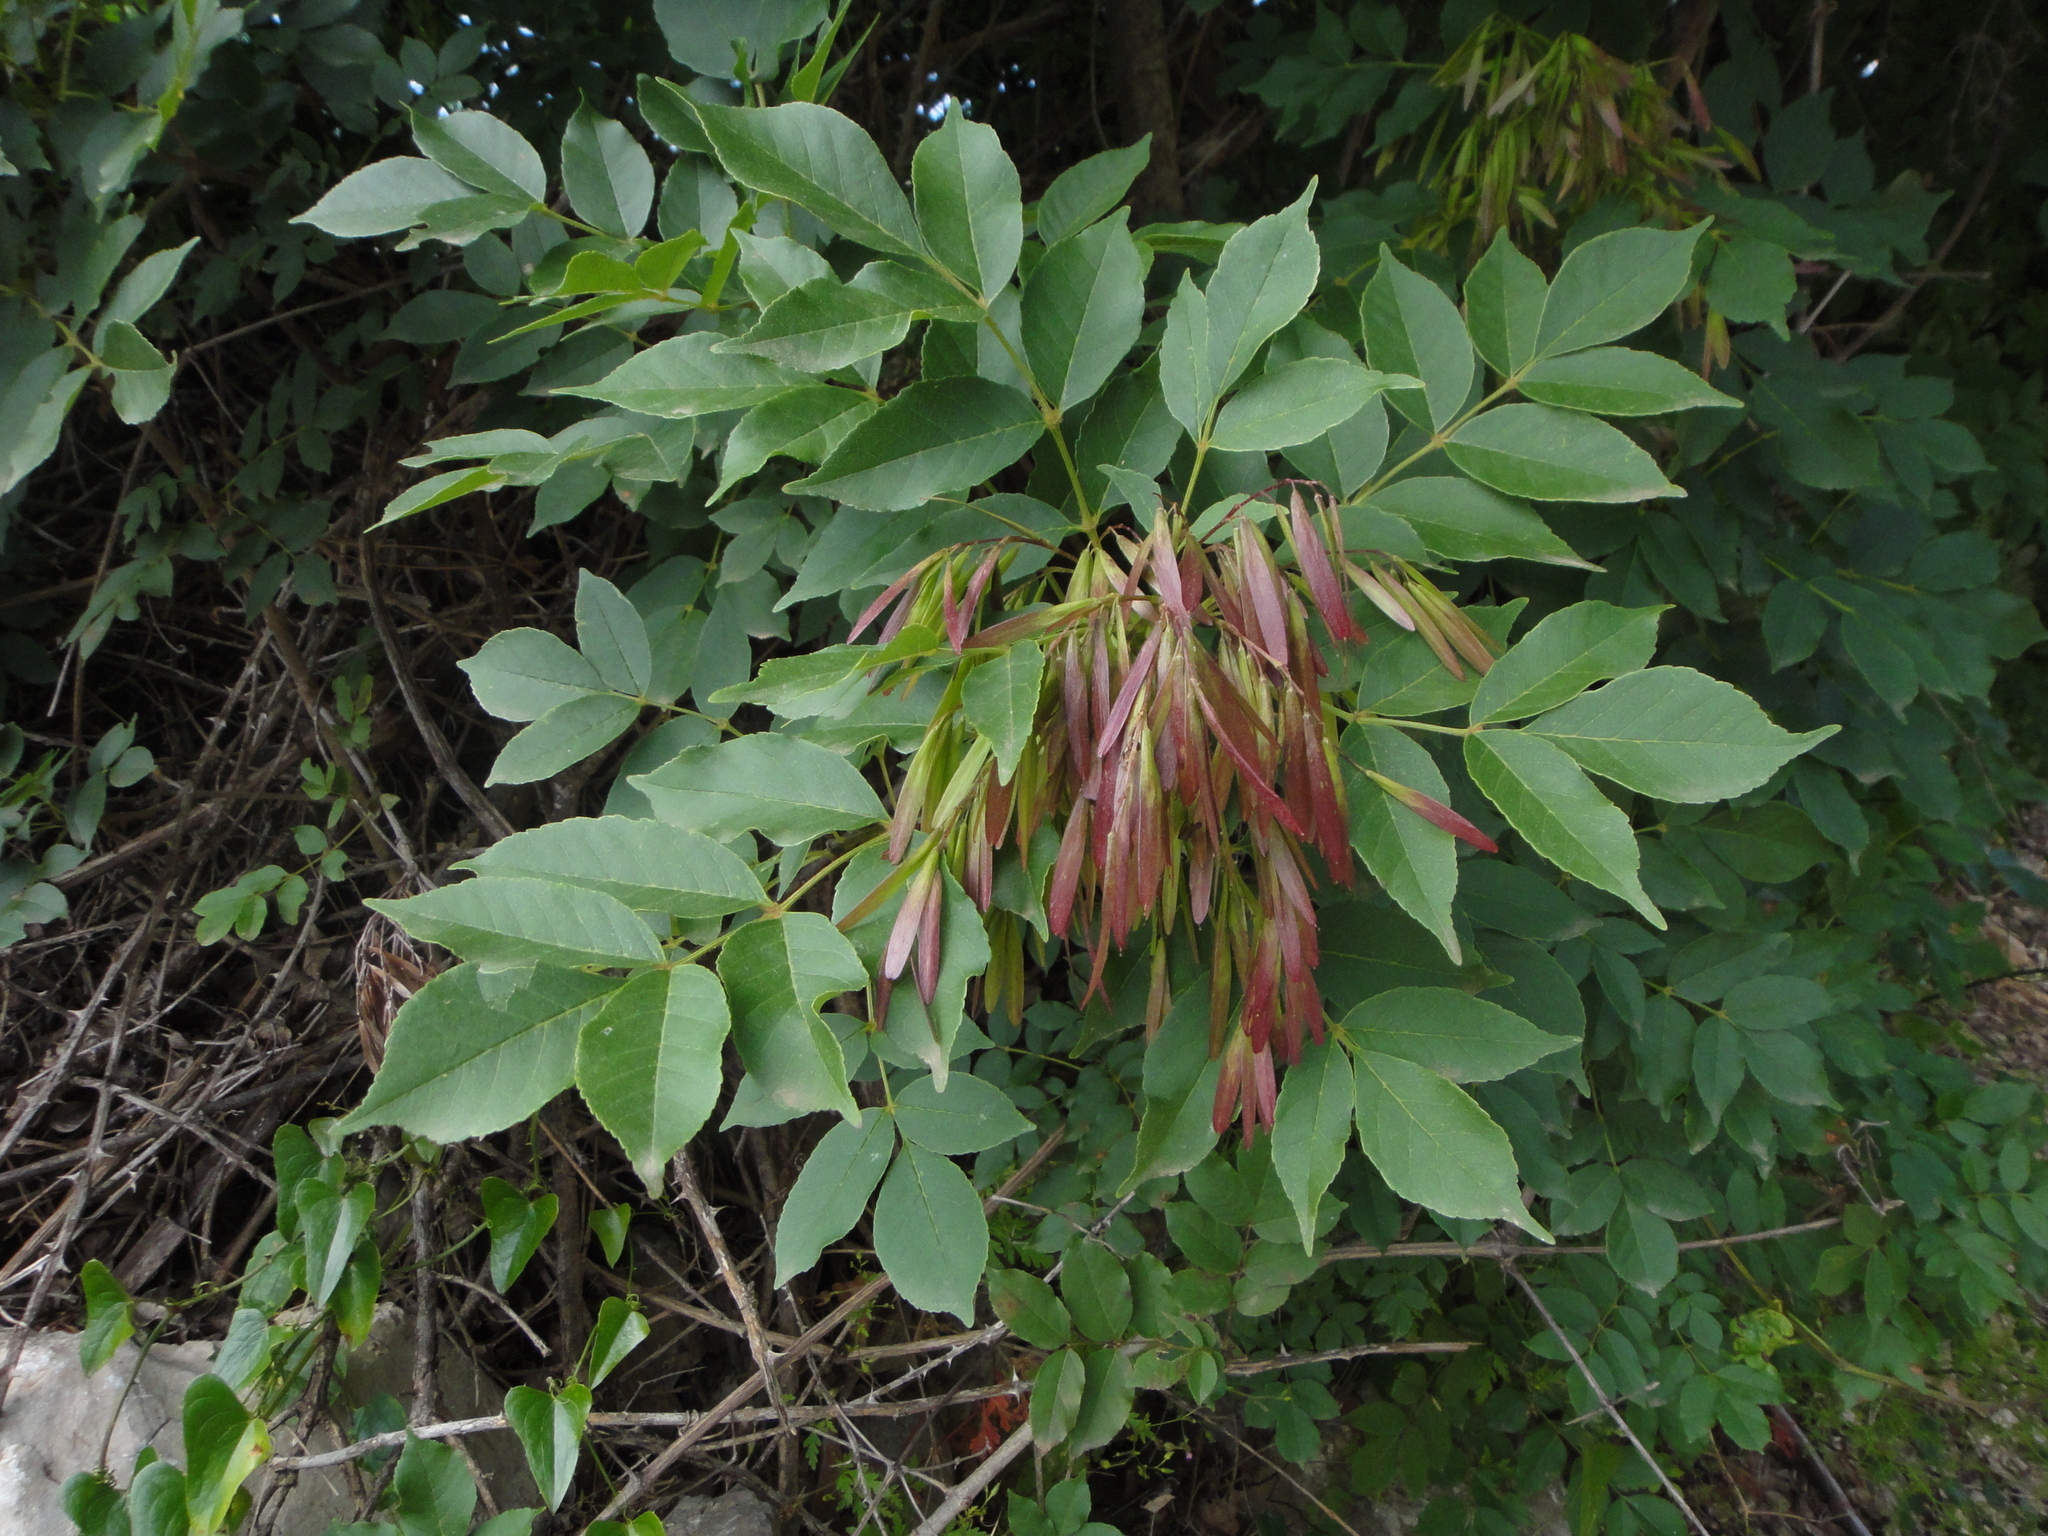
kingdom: Plantae
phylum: Tracheophyta
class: Magnoliopsida
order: Lamiales
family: Oleaceae
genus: Fraxinus
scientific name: Fraxinus ornus
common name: Manna ash
